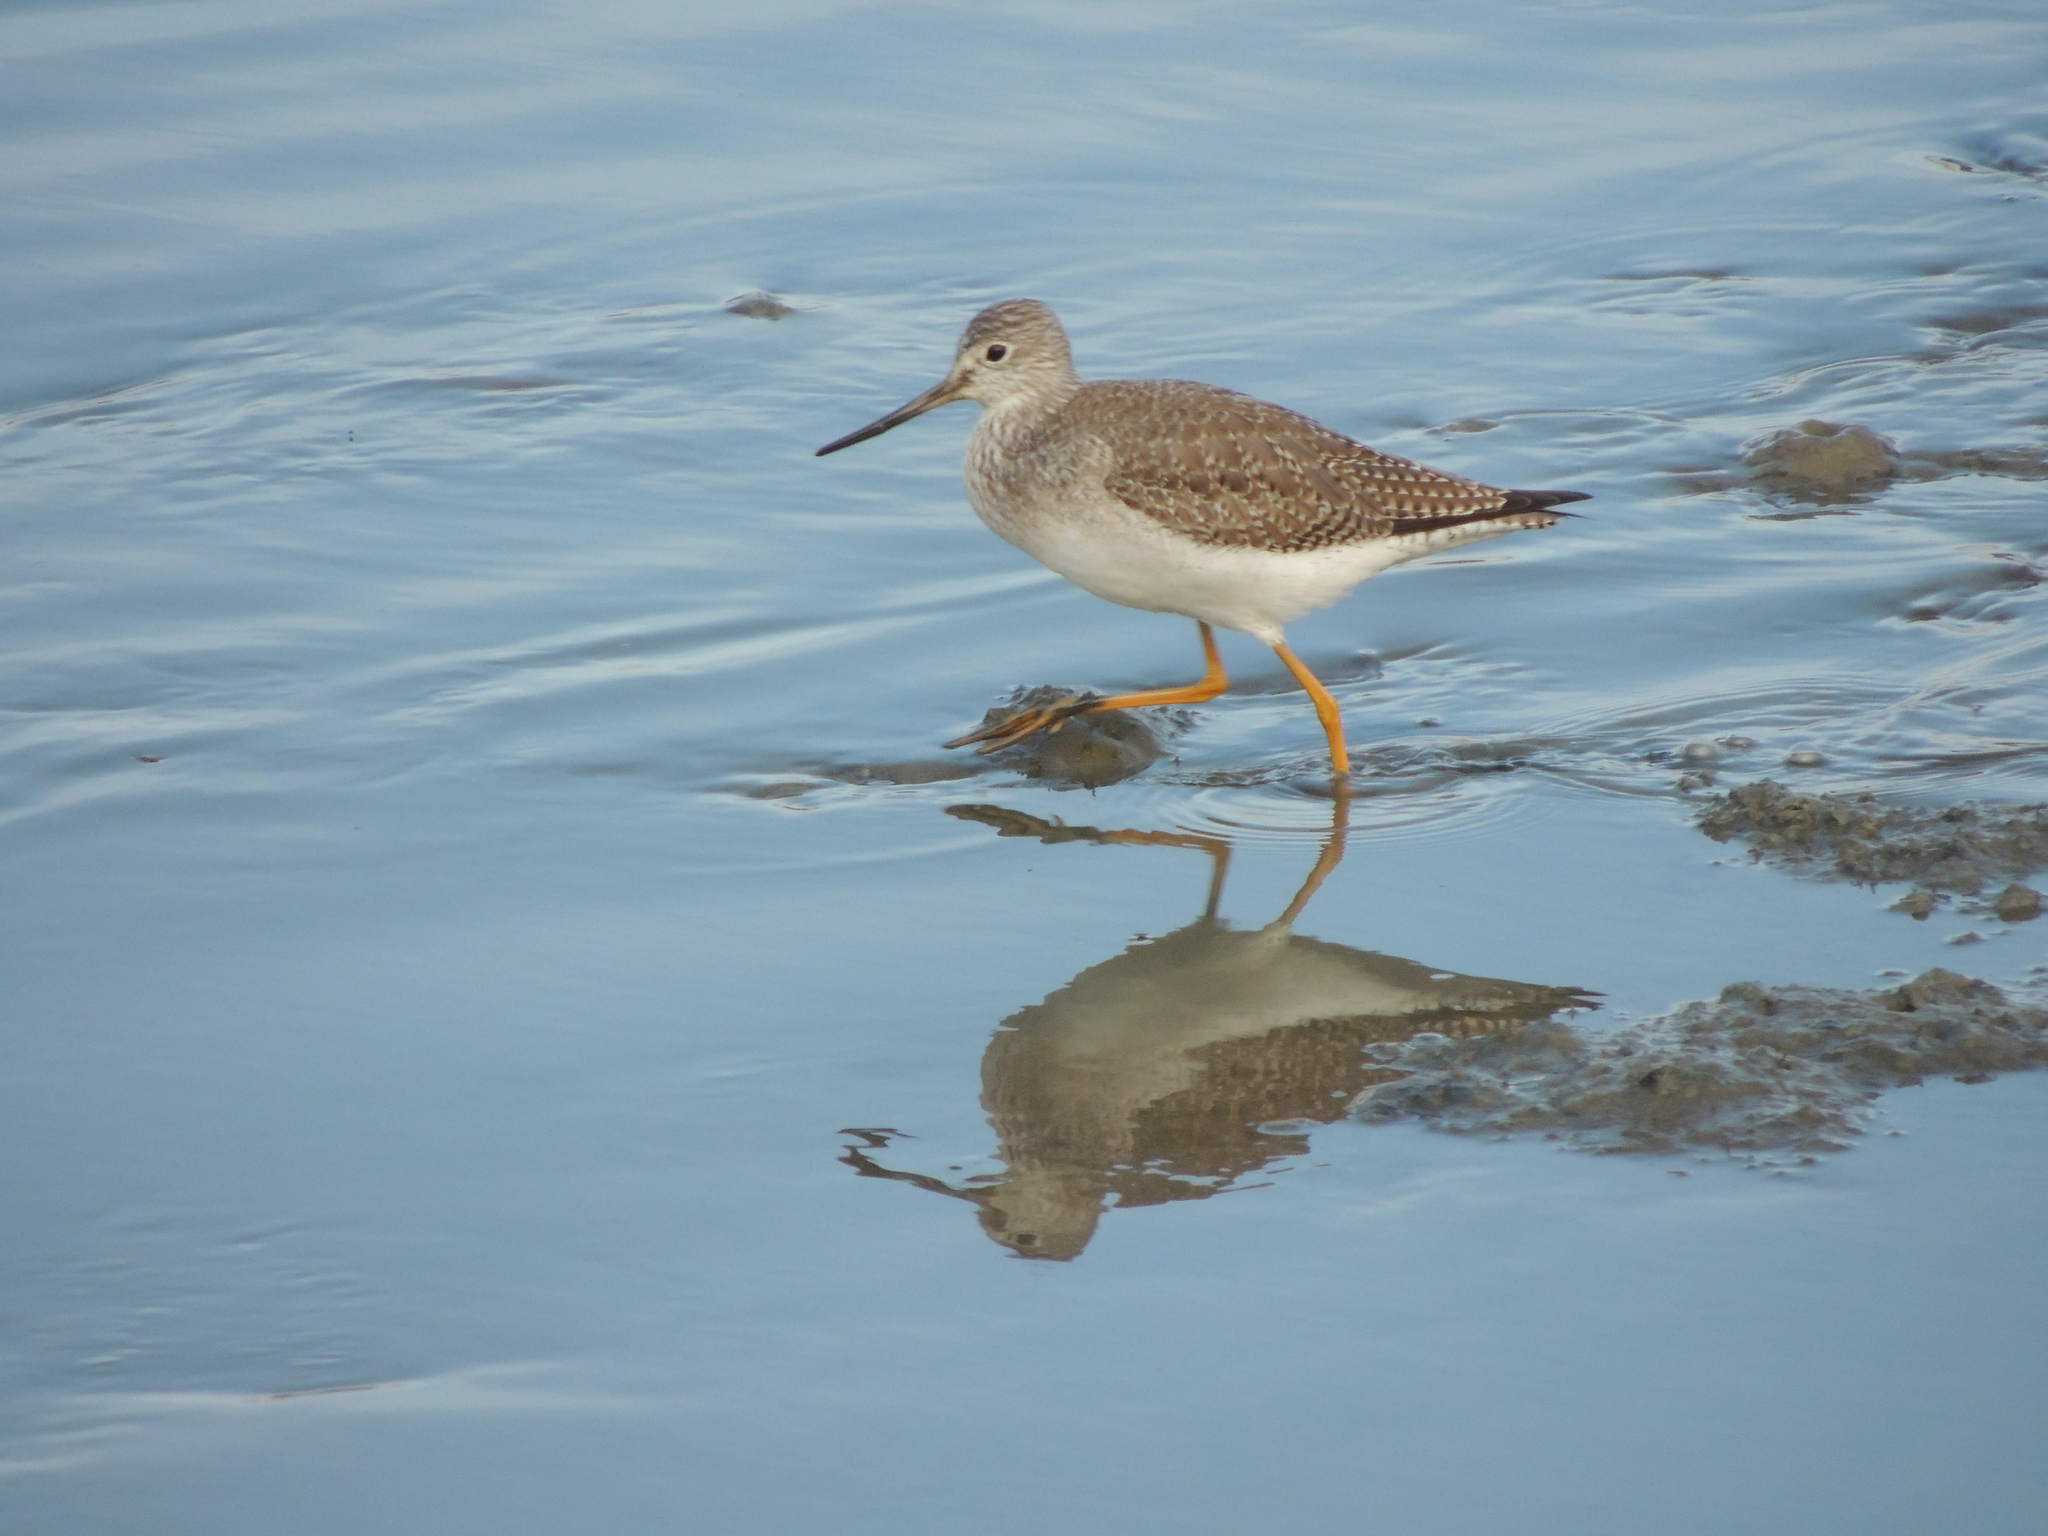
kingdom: Animalia
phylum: Chordata
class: Aves
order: Charadriiformes
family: Scolopacidae
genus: Tringa
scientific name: Tringa melanoleuca
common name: Greater yellowlegs
